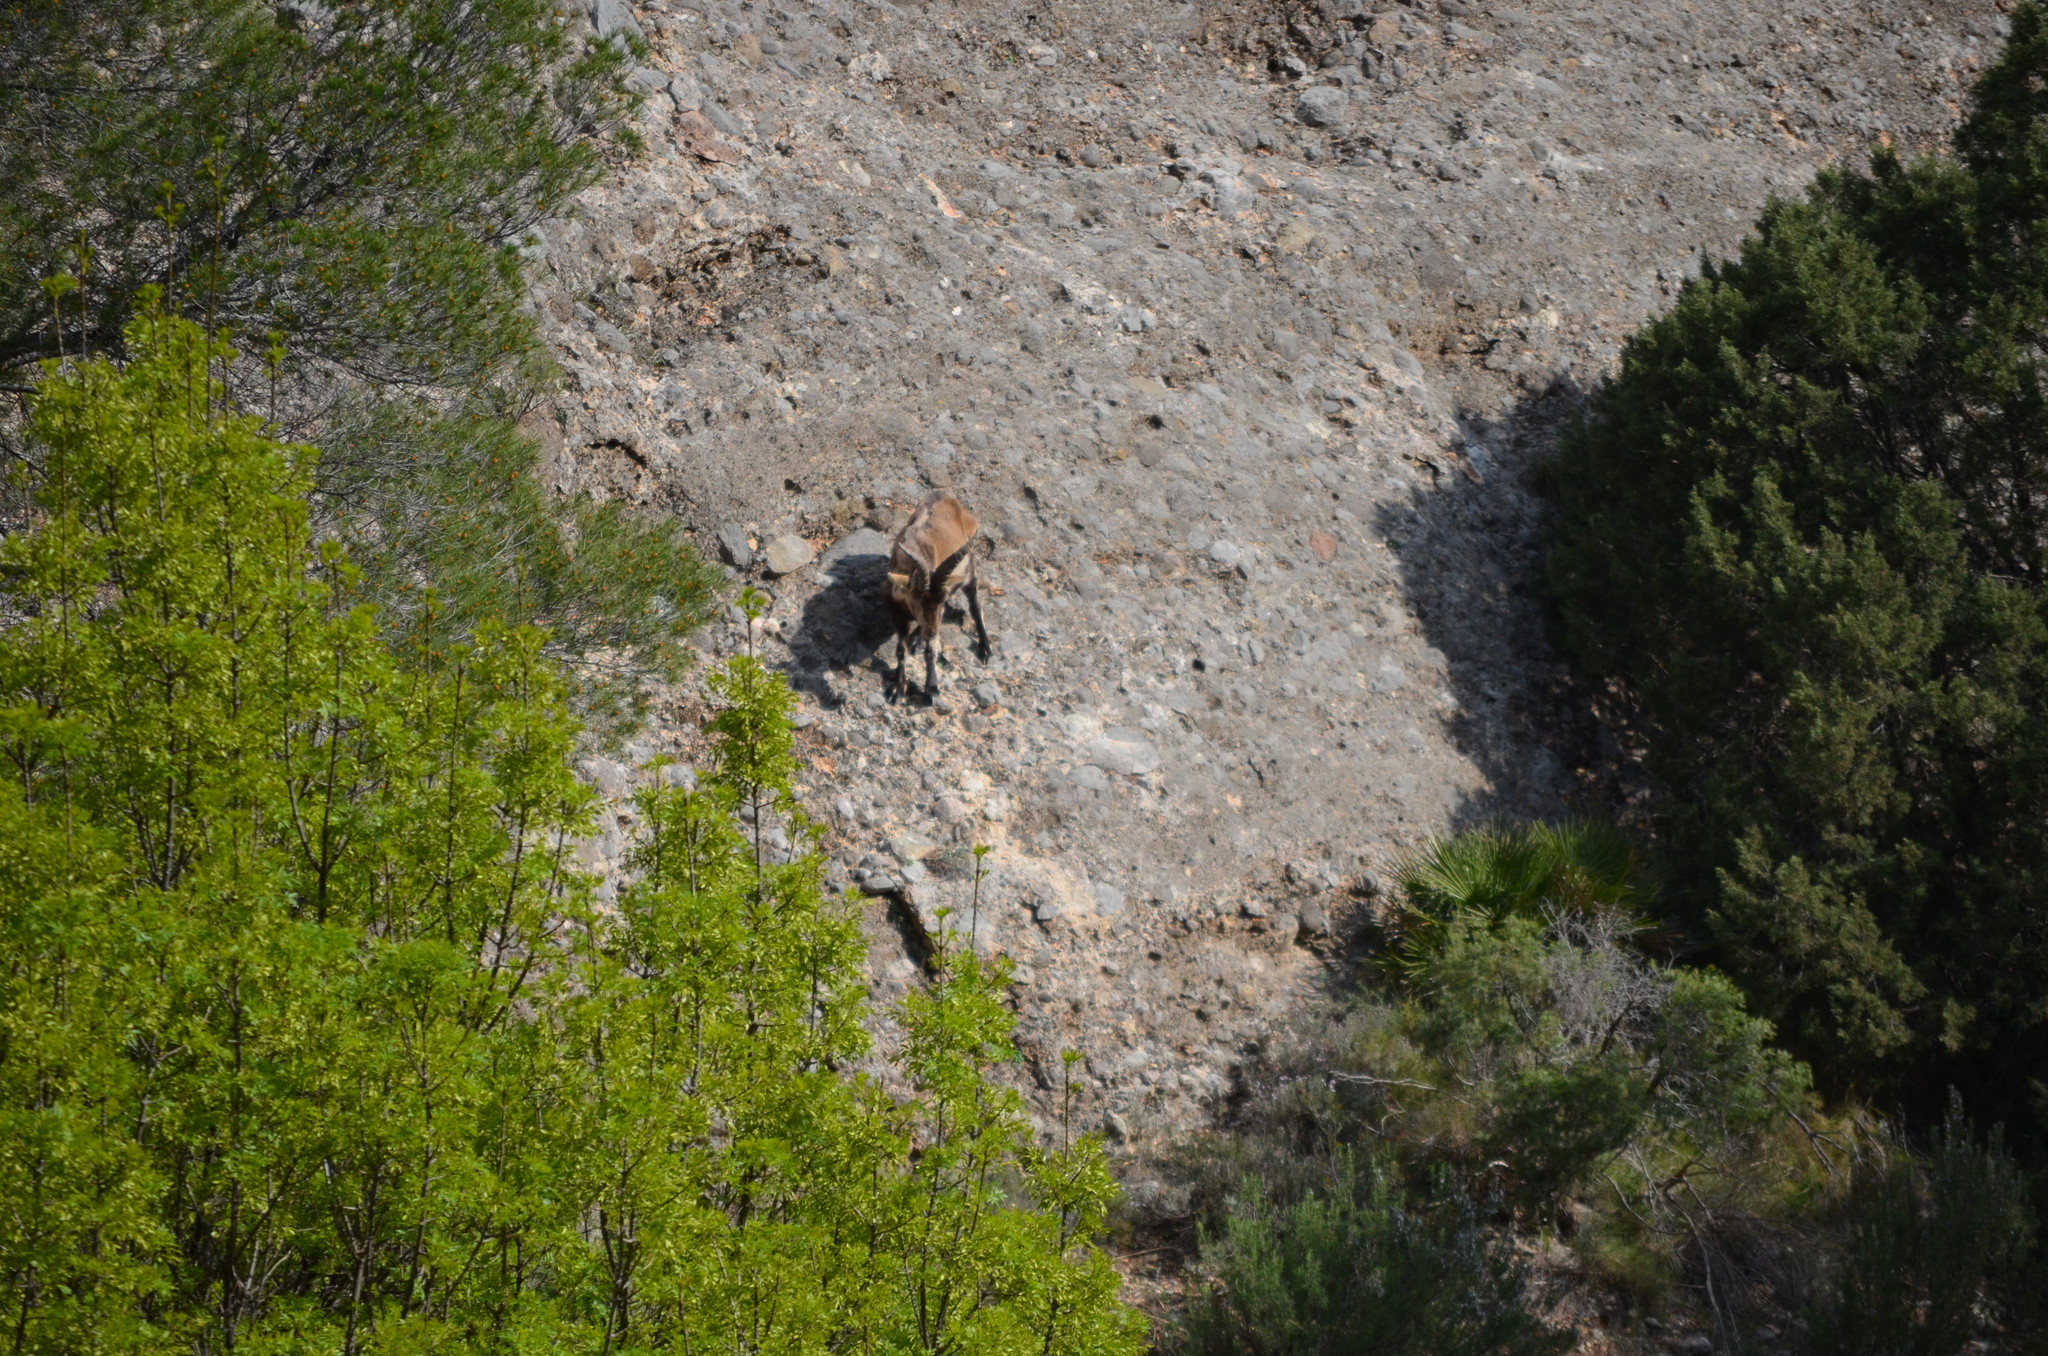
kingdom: Animalia
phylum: Chordata
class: Mammalia
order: Artiodactyla
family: Bovidae
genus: Capra
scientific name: Capra pyrenaica
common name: Spanish ibex
